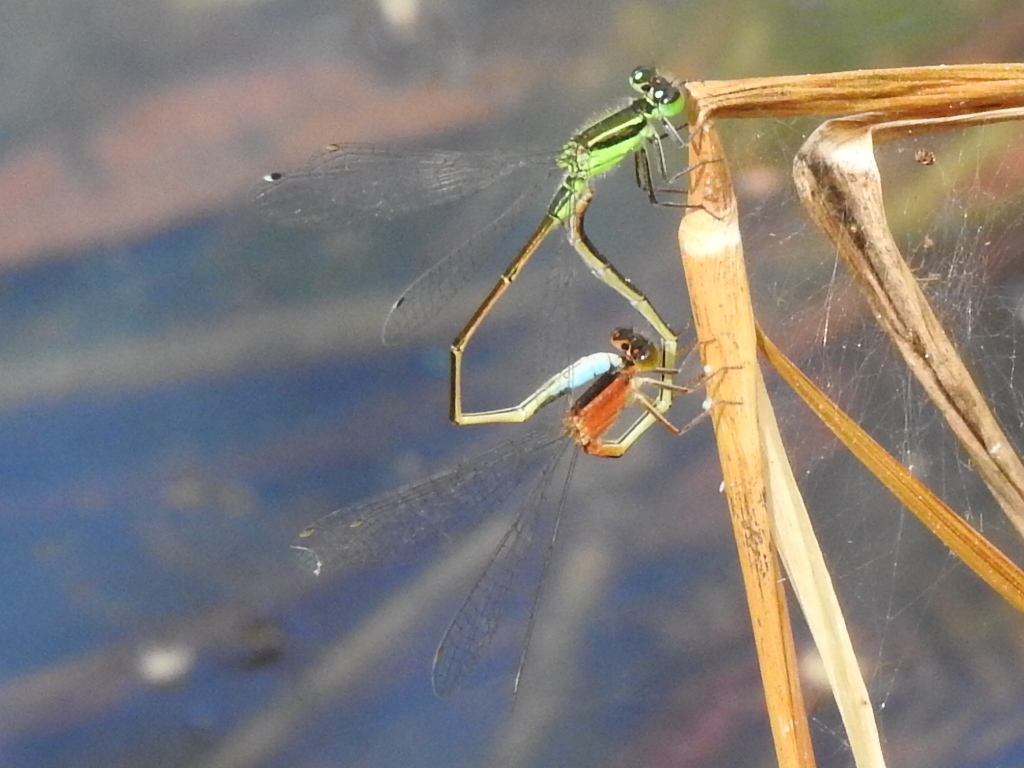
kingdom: Animalia
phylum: Arthropoda
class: Insecta
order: Odonata
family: Coenagrionidae
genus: Ischnura
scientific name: Ischnura ramburii
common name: Rambur's forktail
